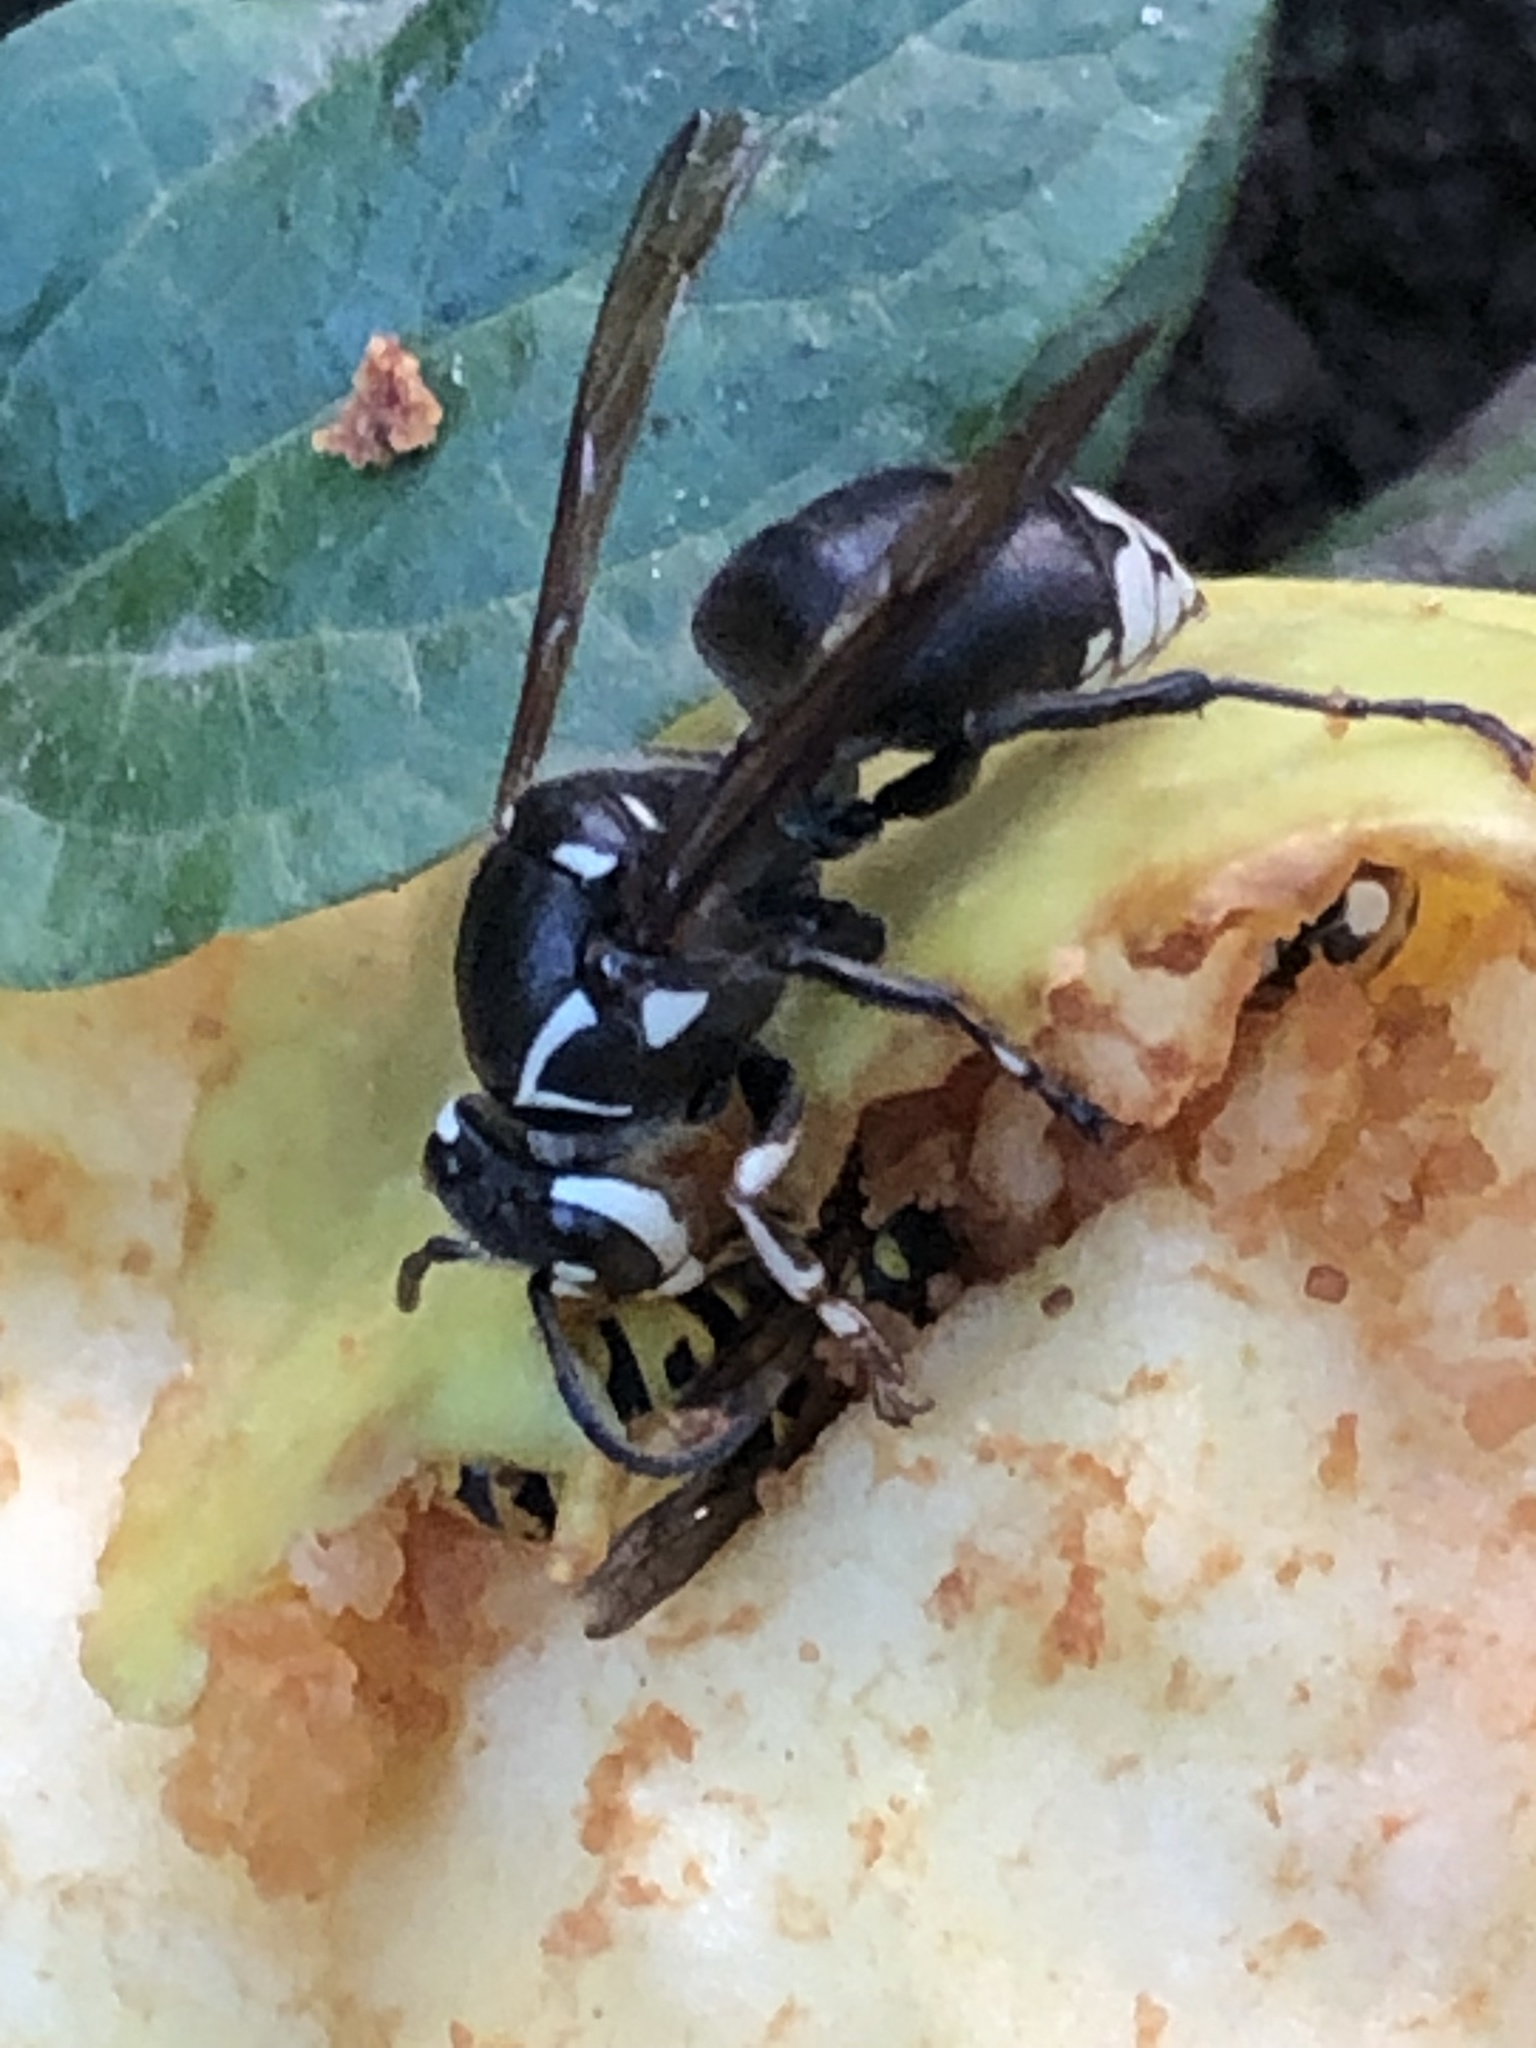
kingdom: Animalia
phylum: Arthropoda
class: Insecta
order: Hymenoptera
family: Vespidae
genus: Dolichovespula
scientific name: Dolichovespula maculata
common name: Bald-faced hornet
